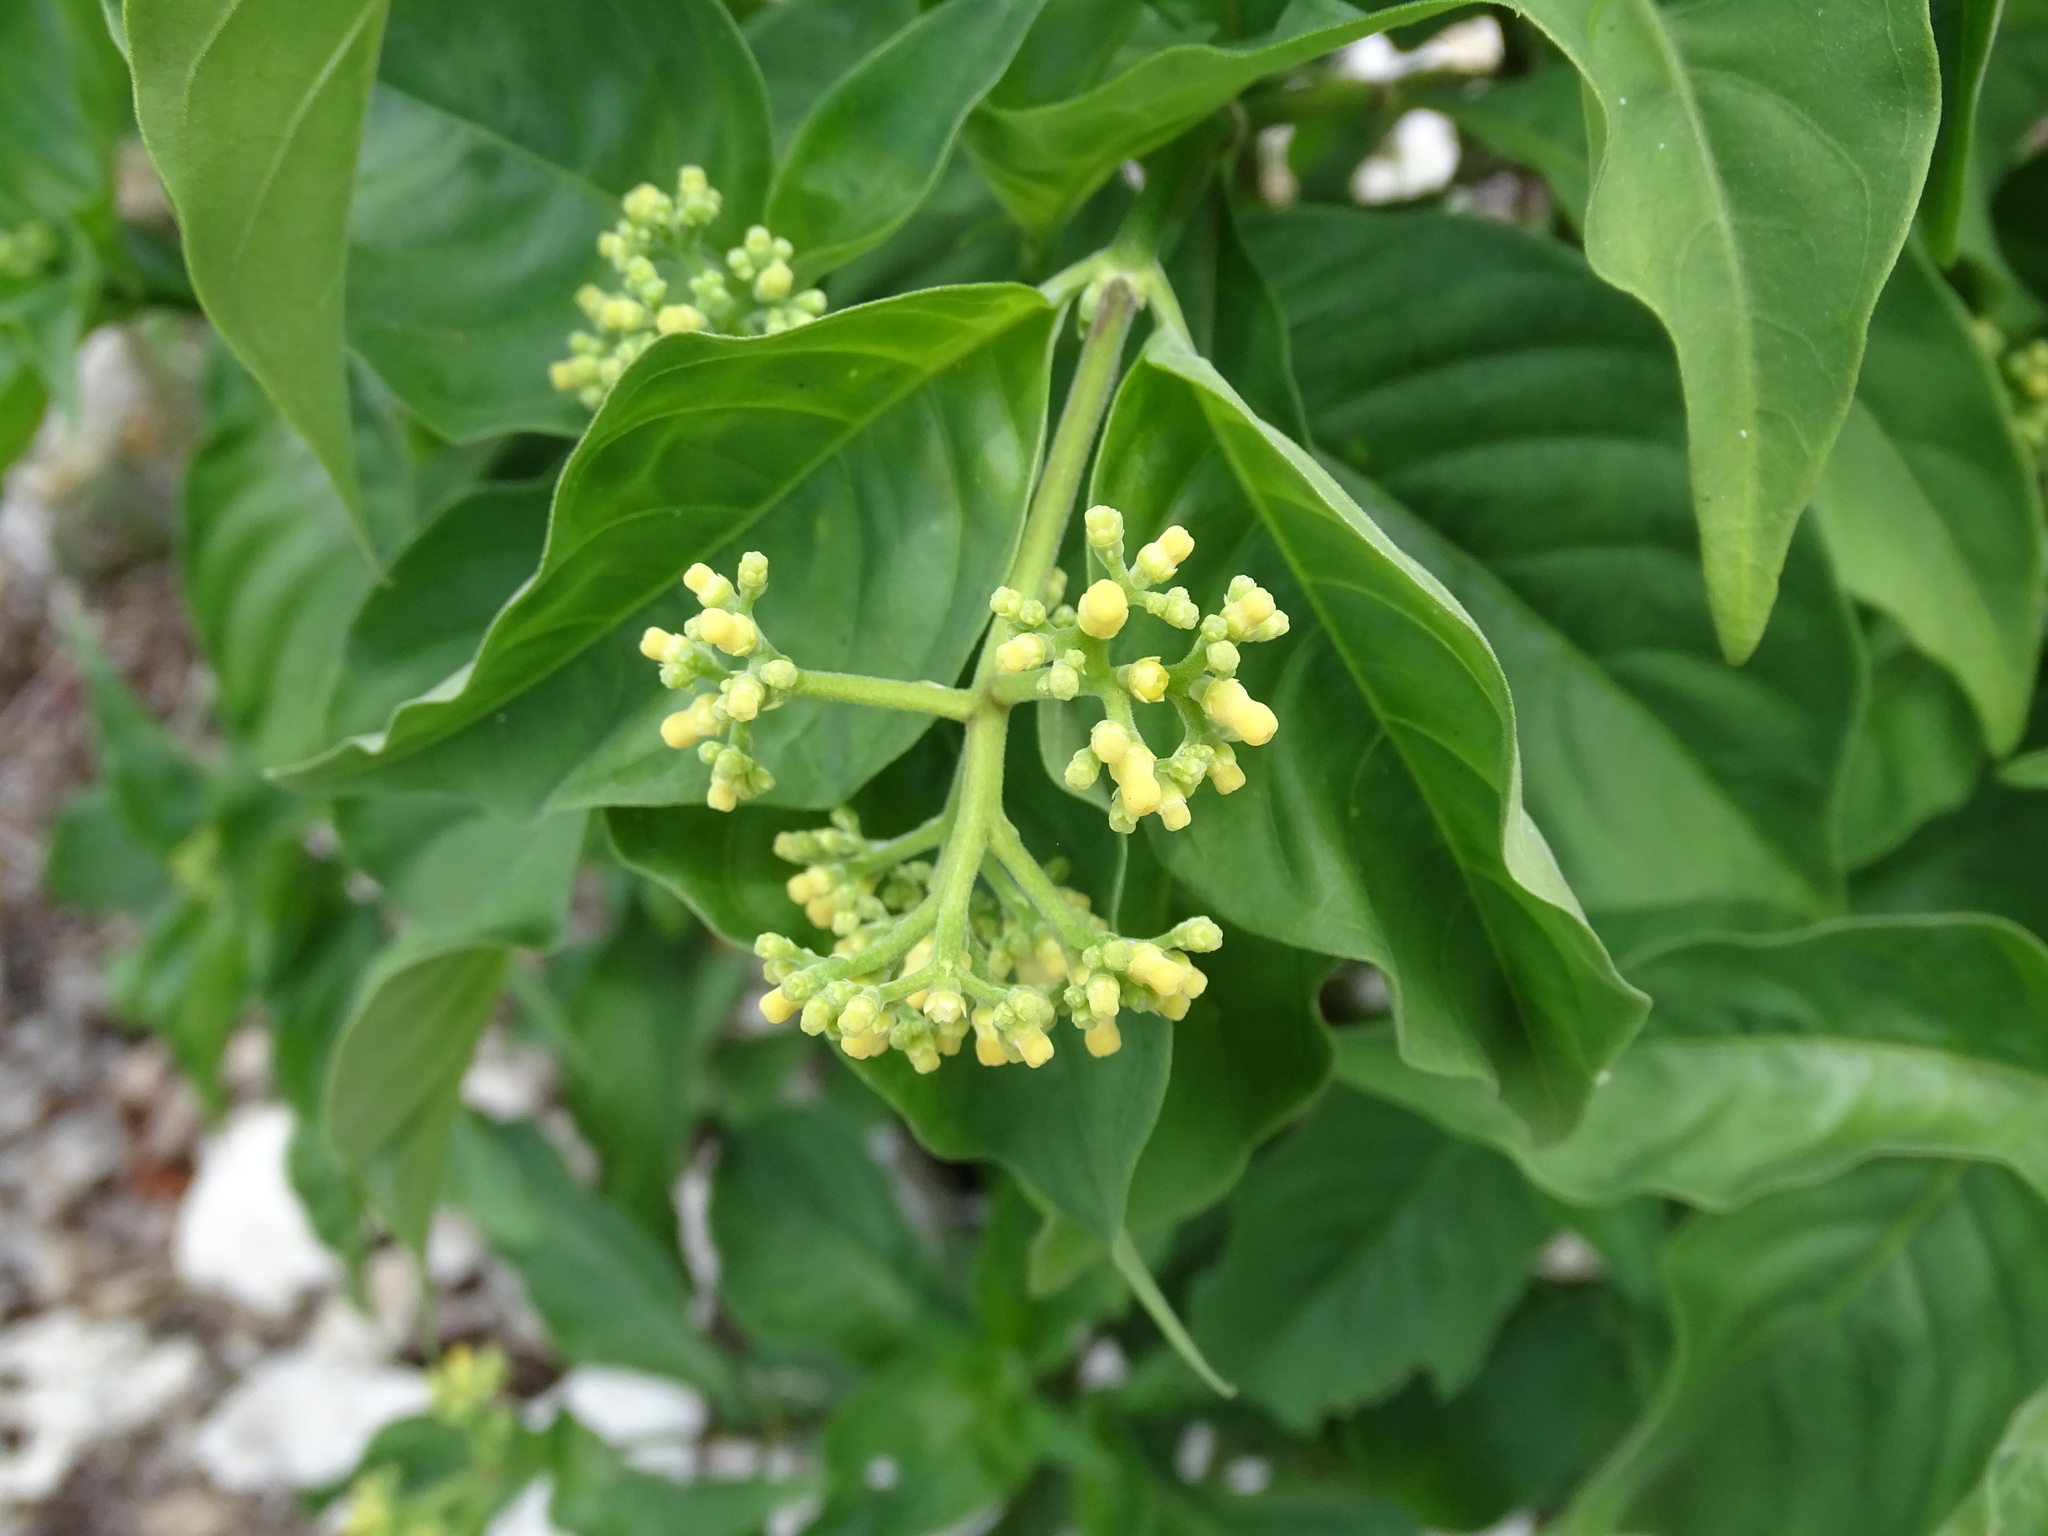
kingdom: Plantae
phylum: Tracheophyta
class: Magnoliopsida
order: Gentianales
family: Rubiaceae
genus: Palicourea
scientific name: Palicourea pubescens
